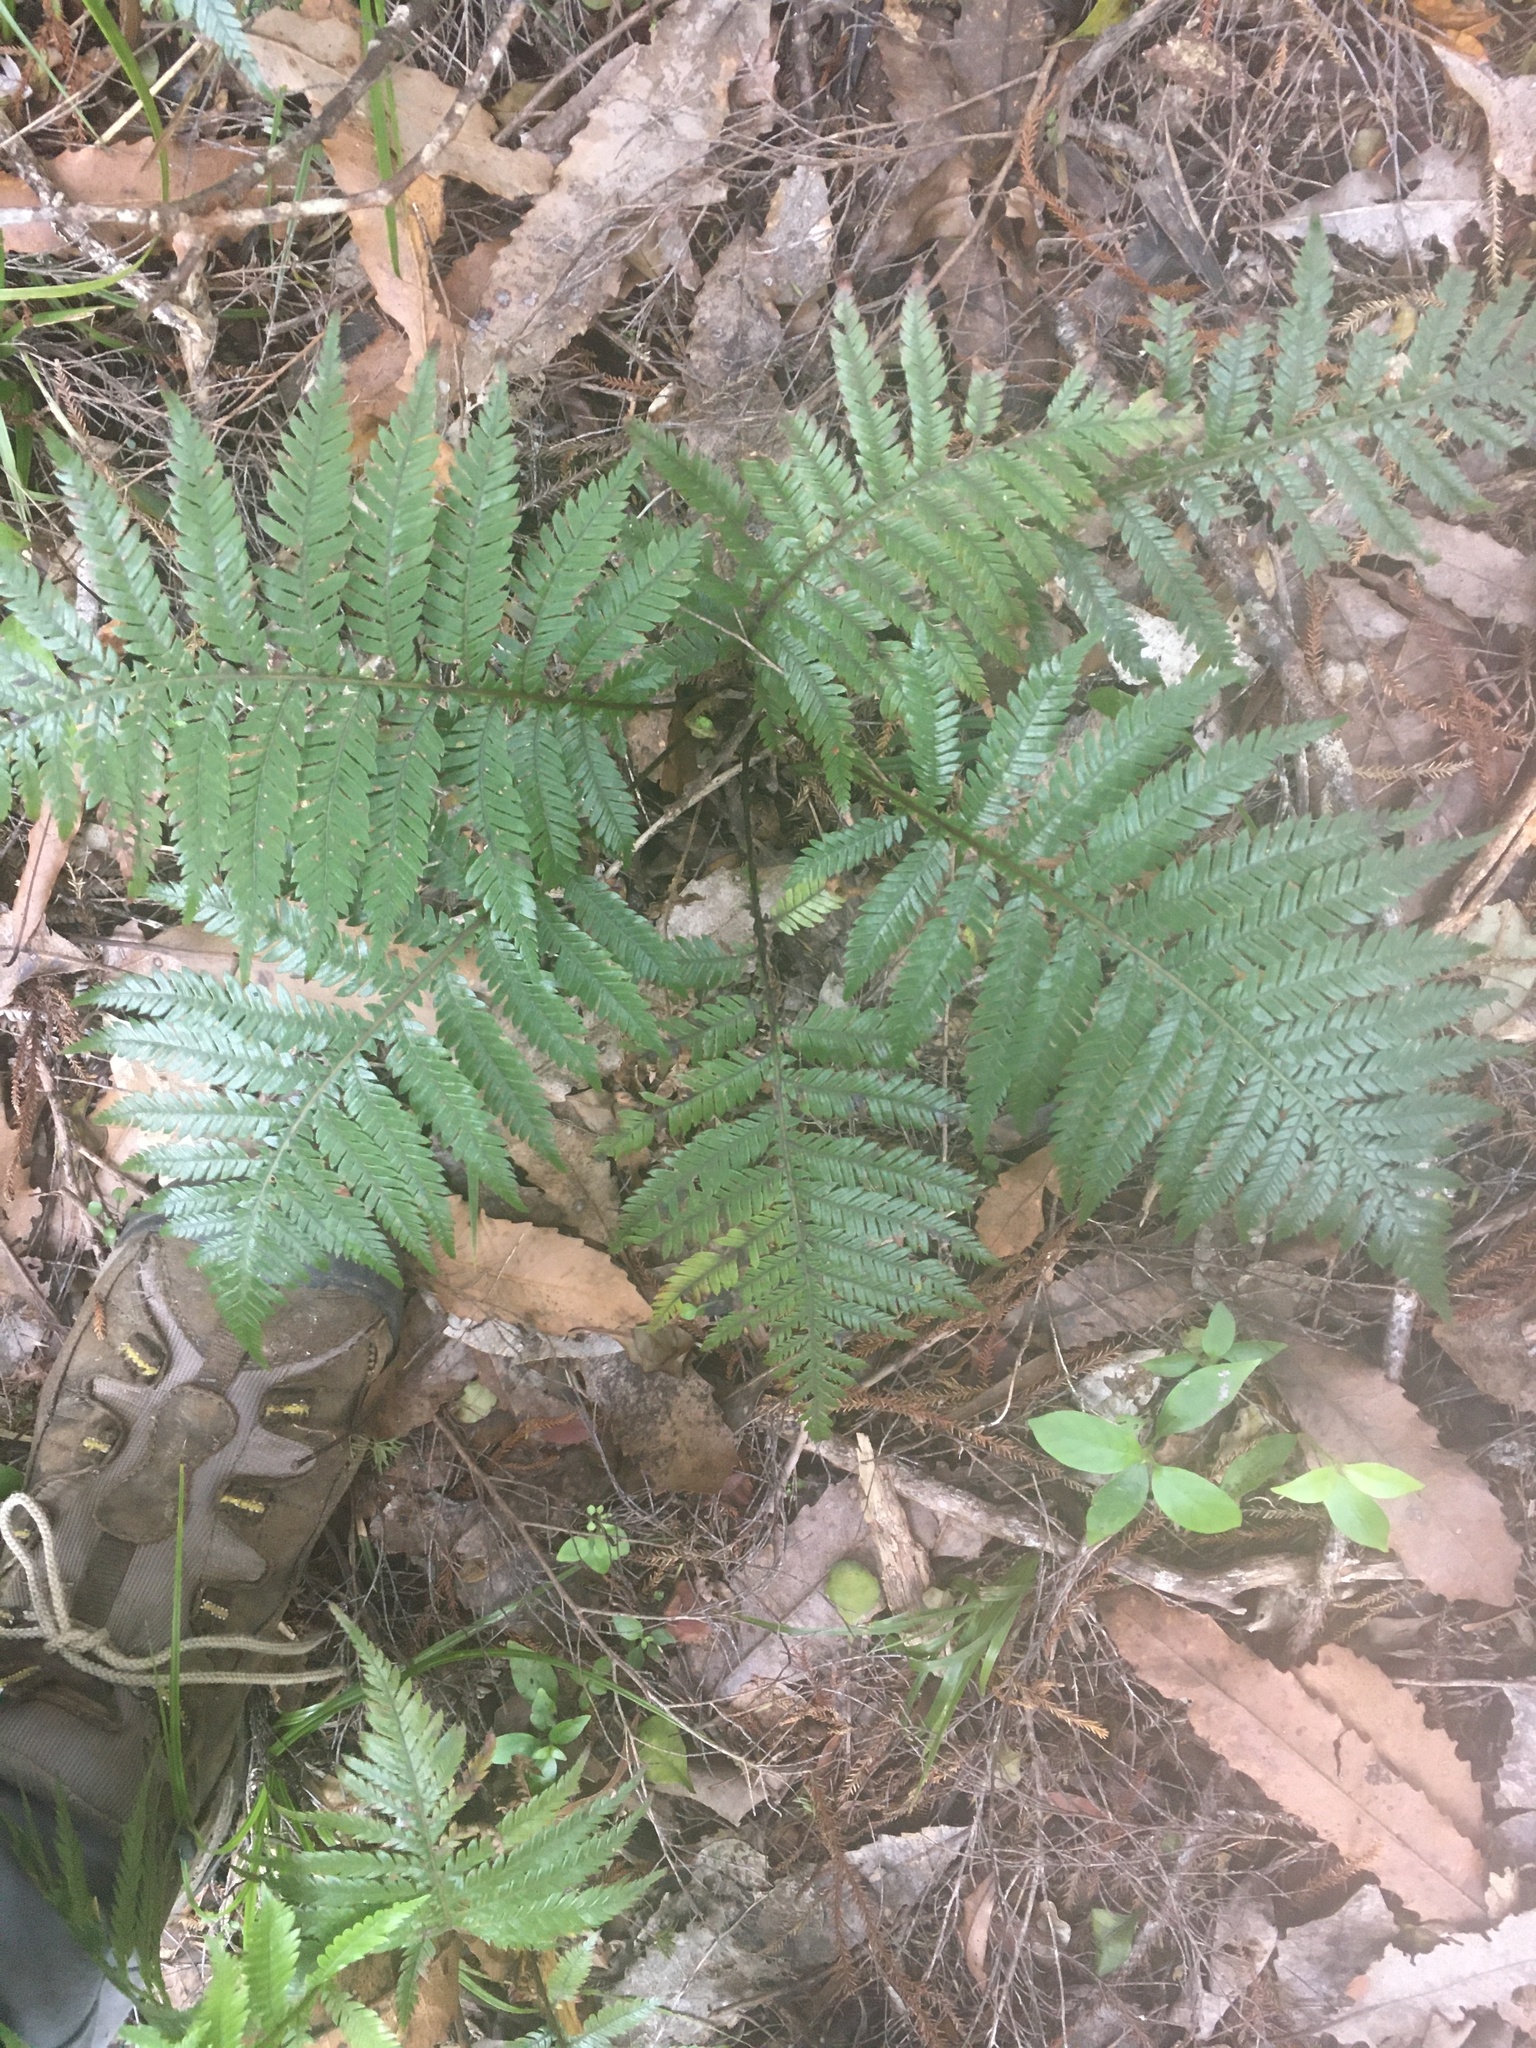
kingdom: Plantae
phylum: Tracheophyta
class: Polypodiopsida
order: Polypodiales
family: Blechnaceae
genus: Diploblechnum
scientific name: Diploblechnum fraseri
